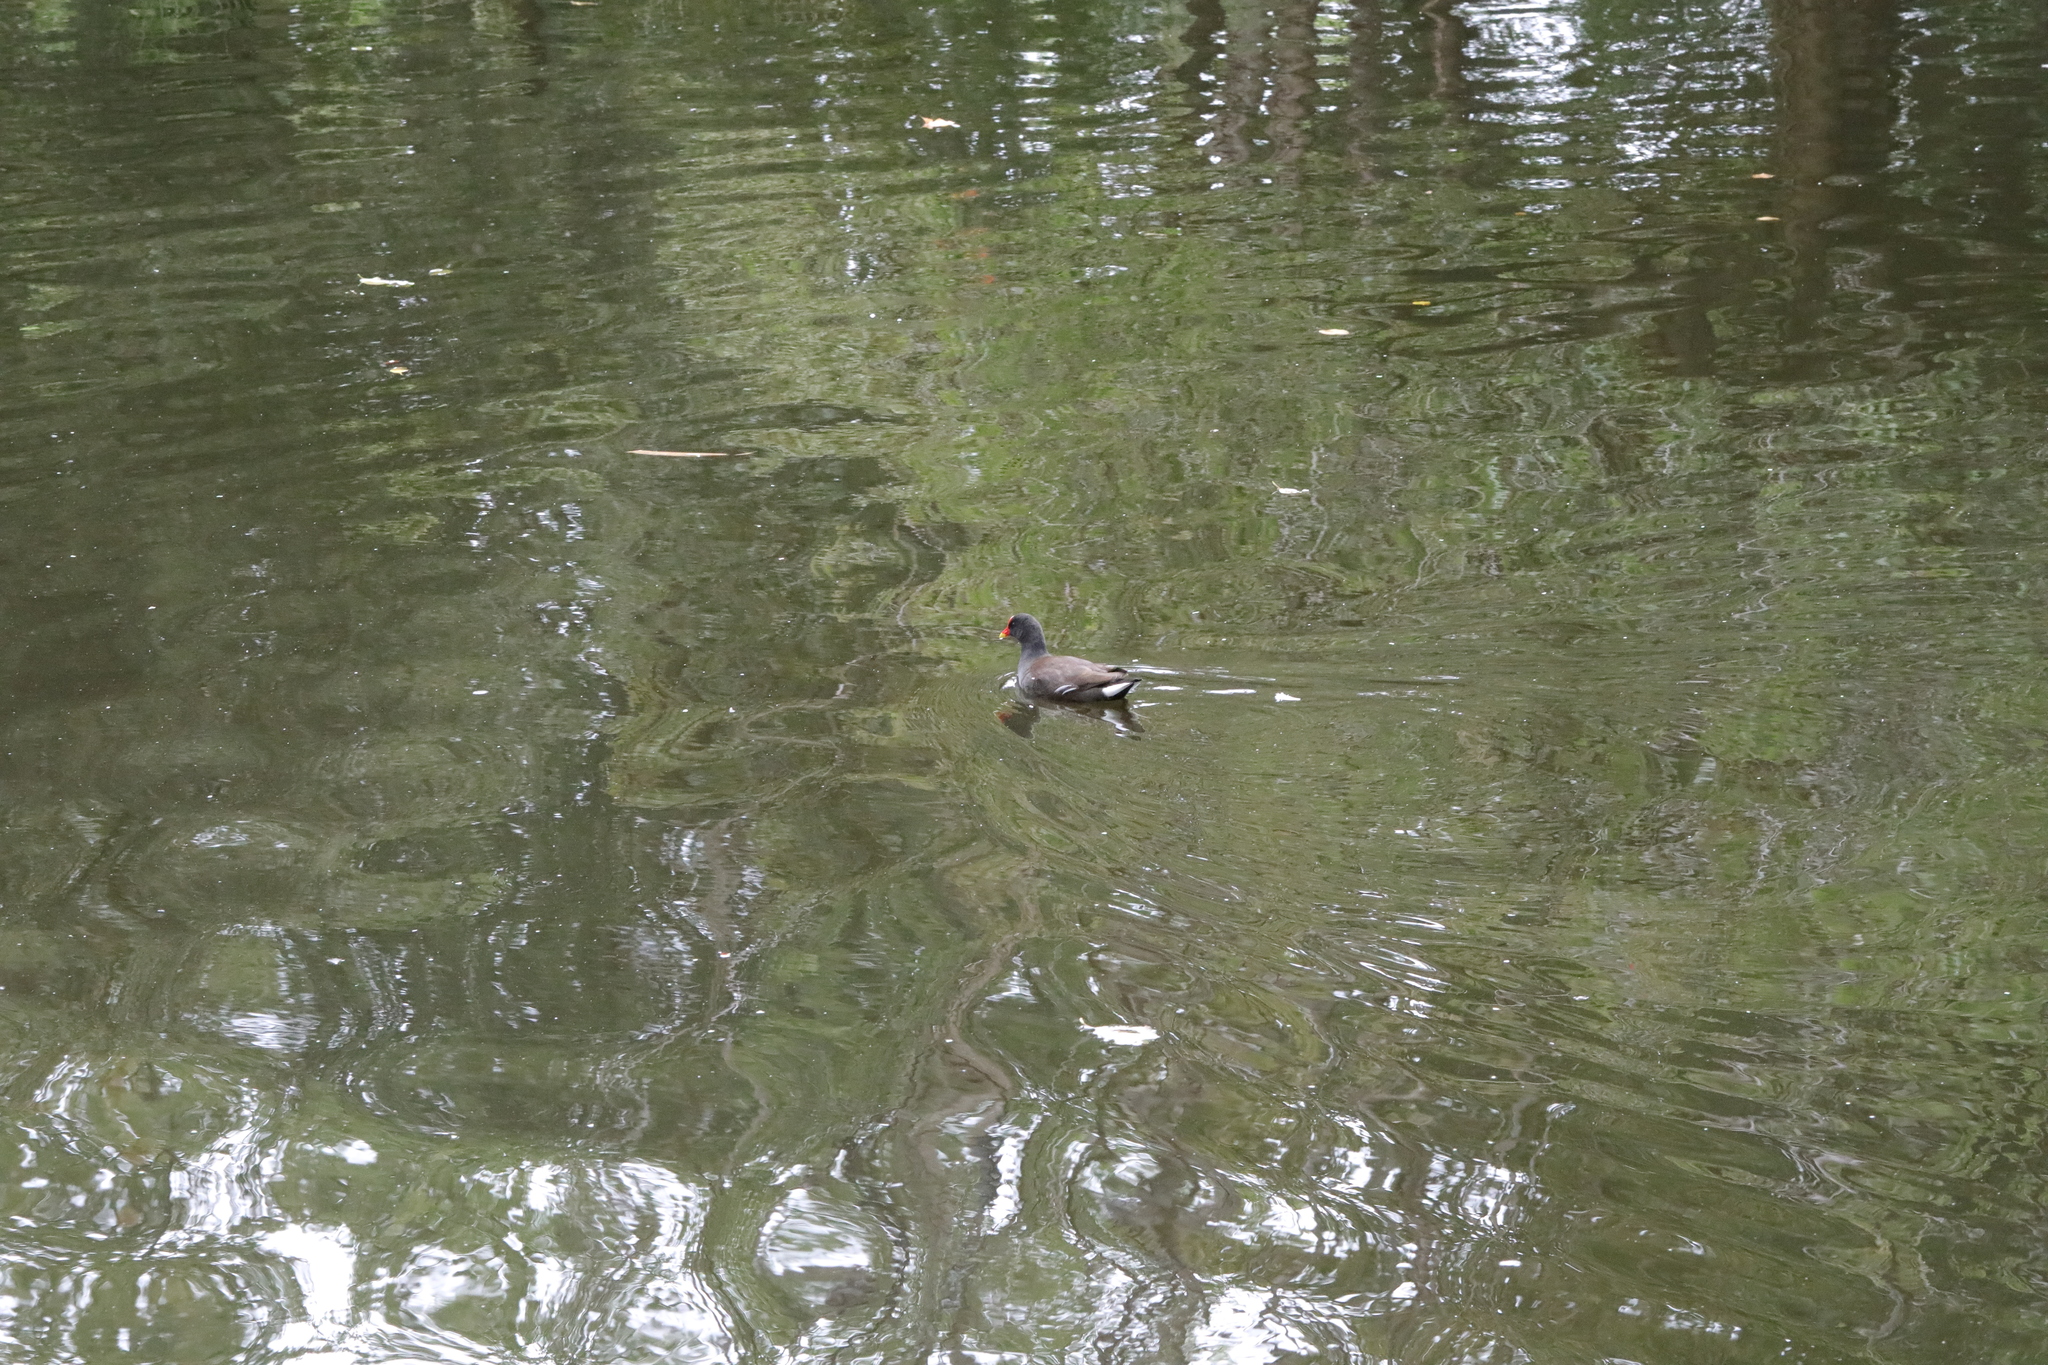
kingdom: Animalia
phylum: Chordata
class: Aves
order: Gruiformes
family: Rallidae
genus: Gallinula
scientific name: Gallinula chloropus
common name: Common moorhen
